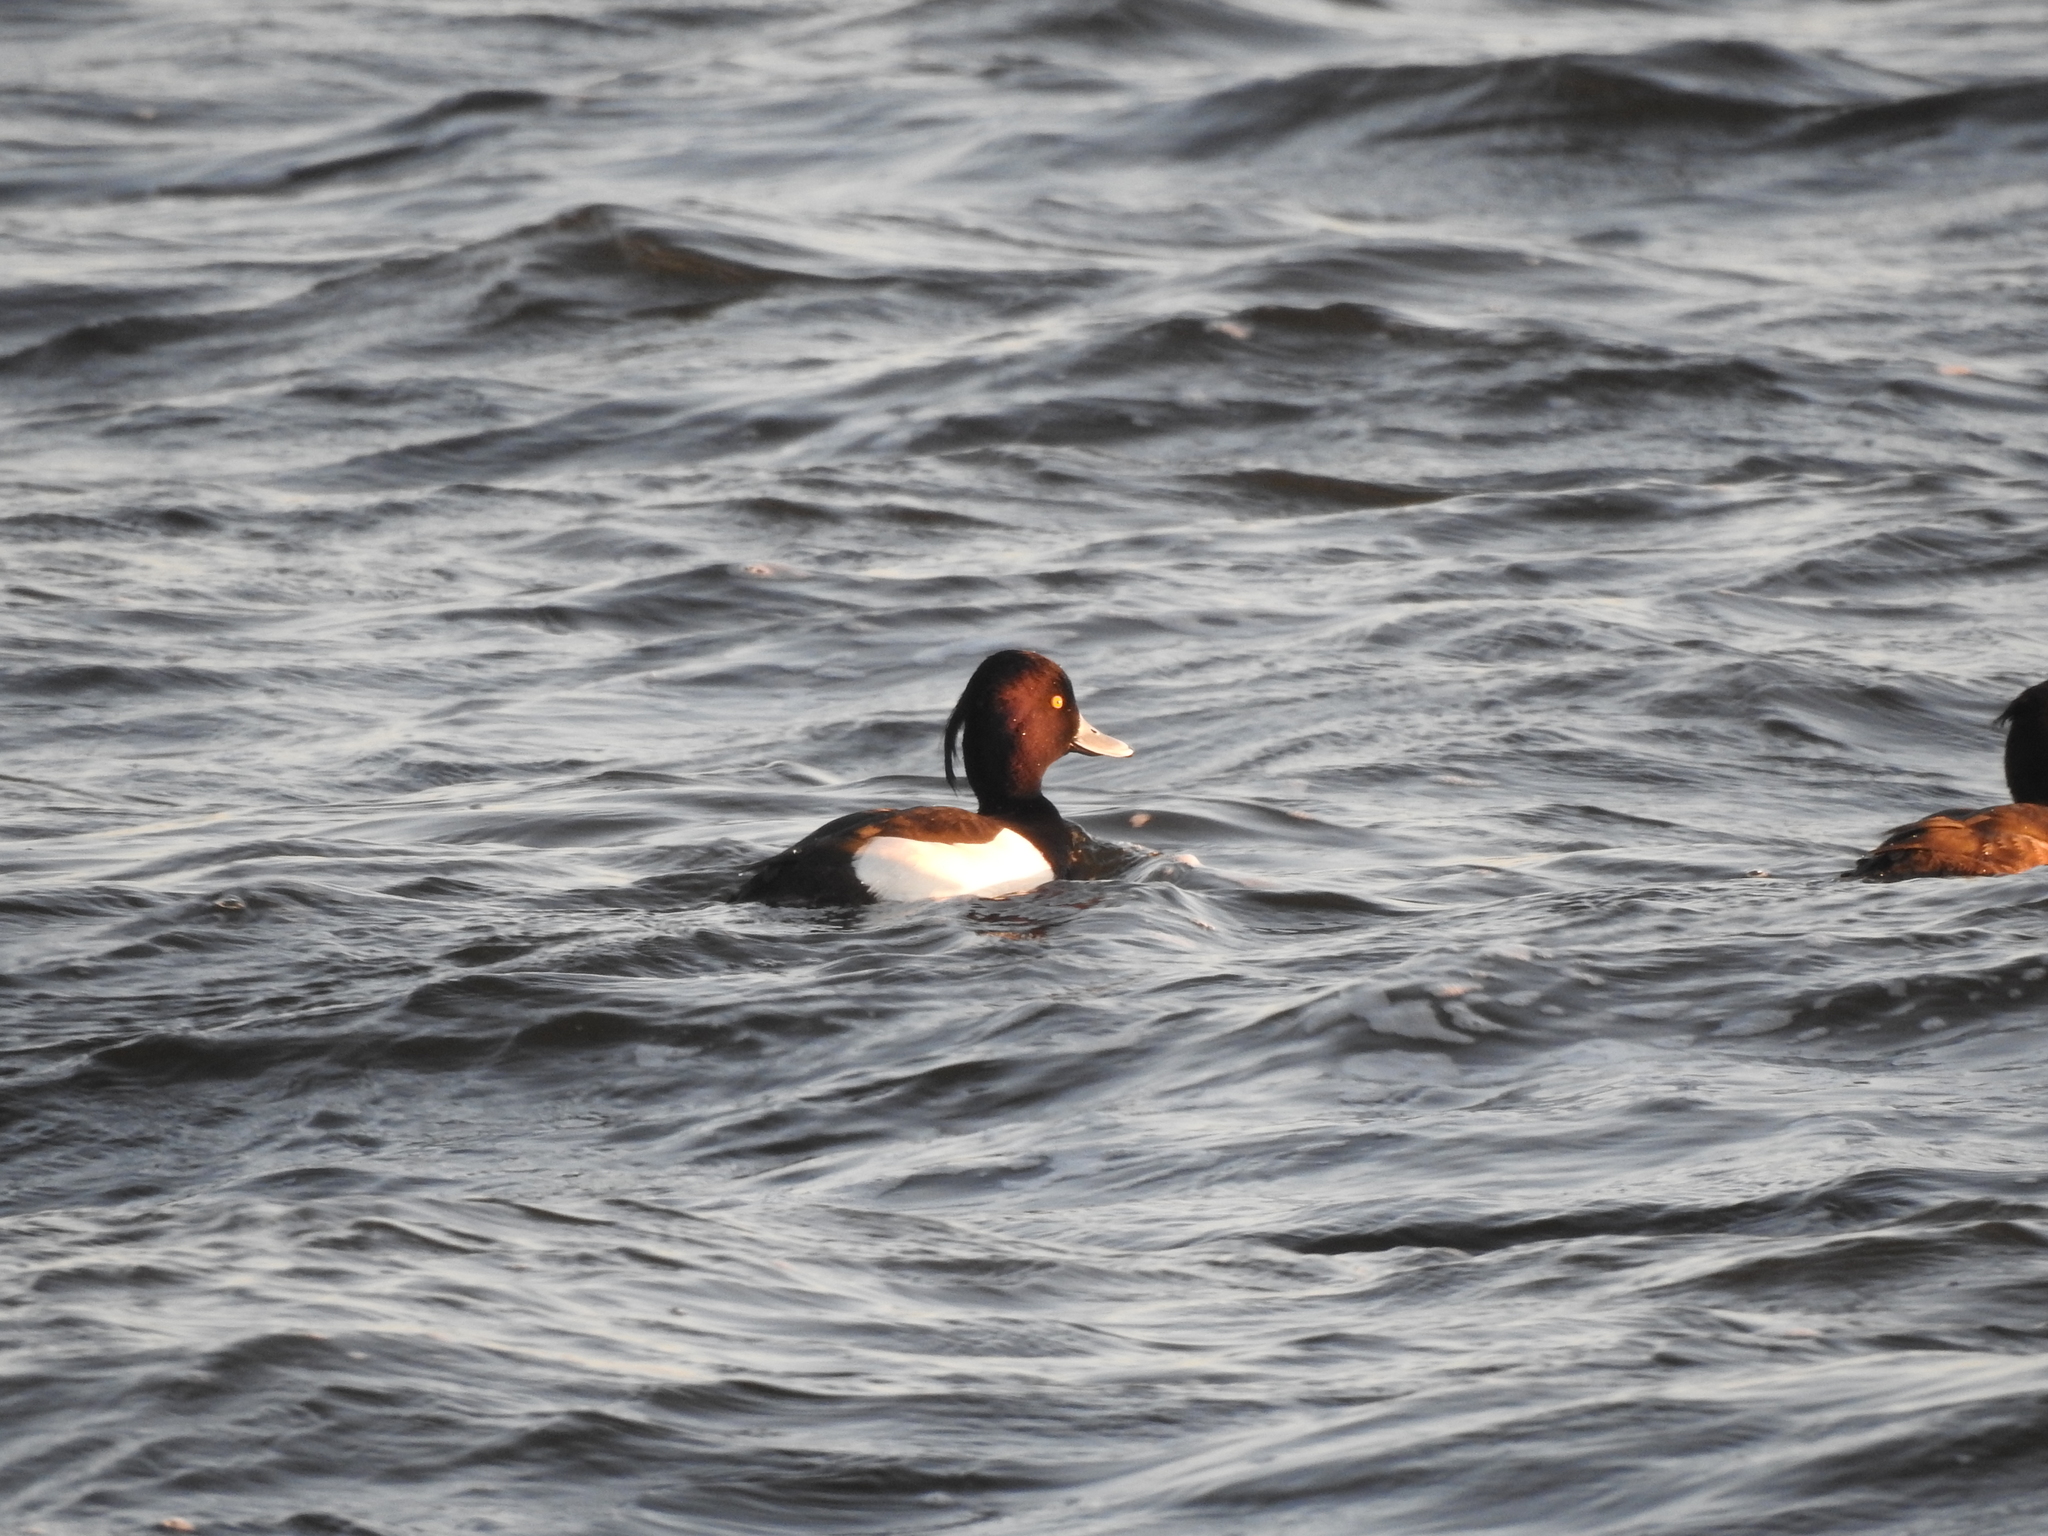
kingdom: Animalia
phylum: Chordata
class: Aves
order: Anseriformes
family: Anatidae
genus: Aythya
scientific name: Aythya fuligula
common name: Tufted duck
